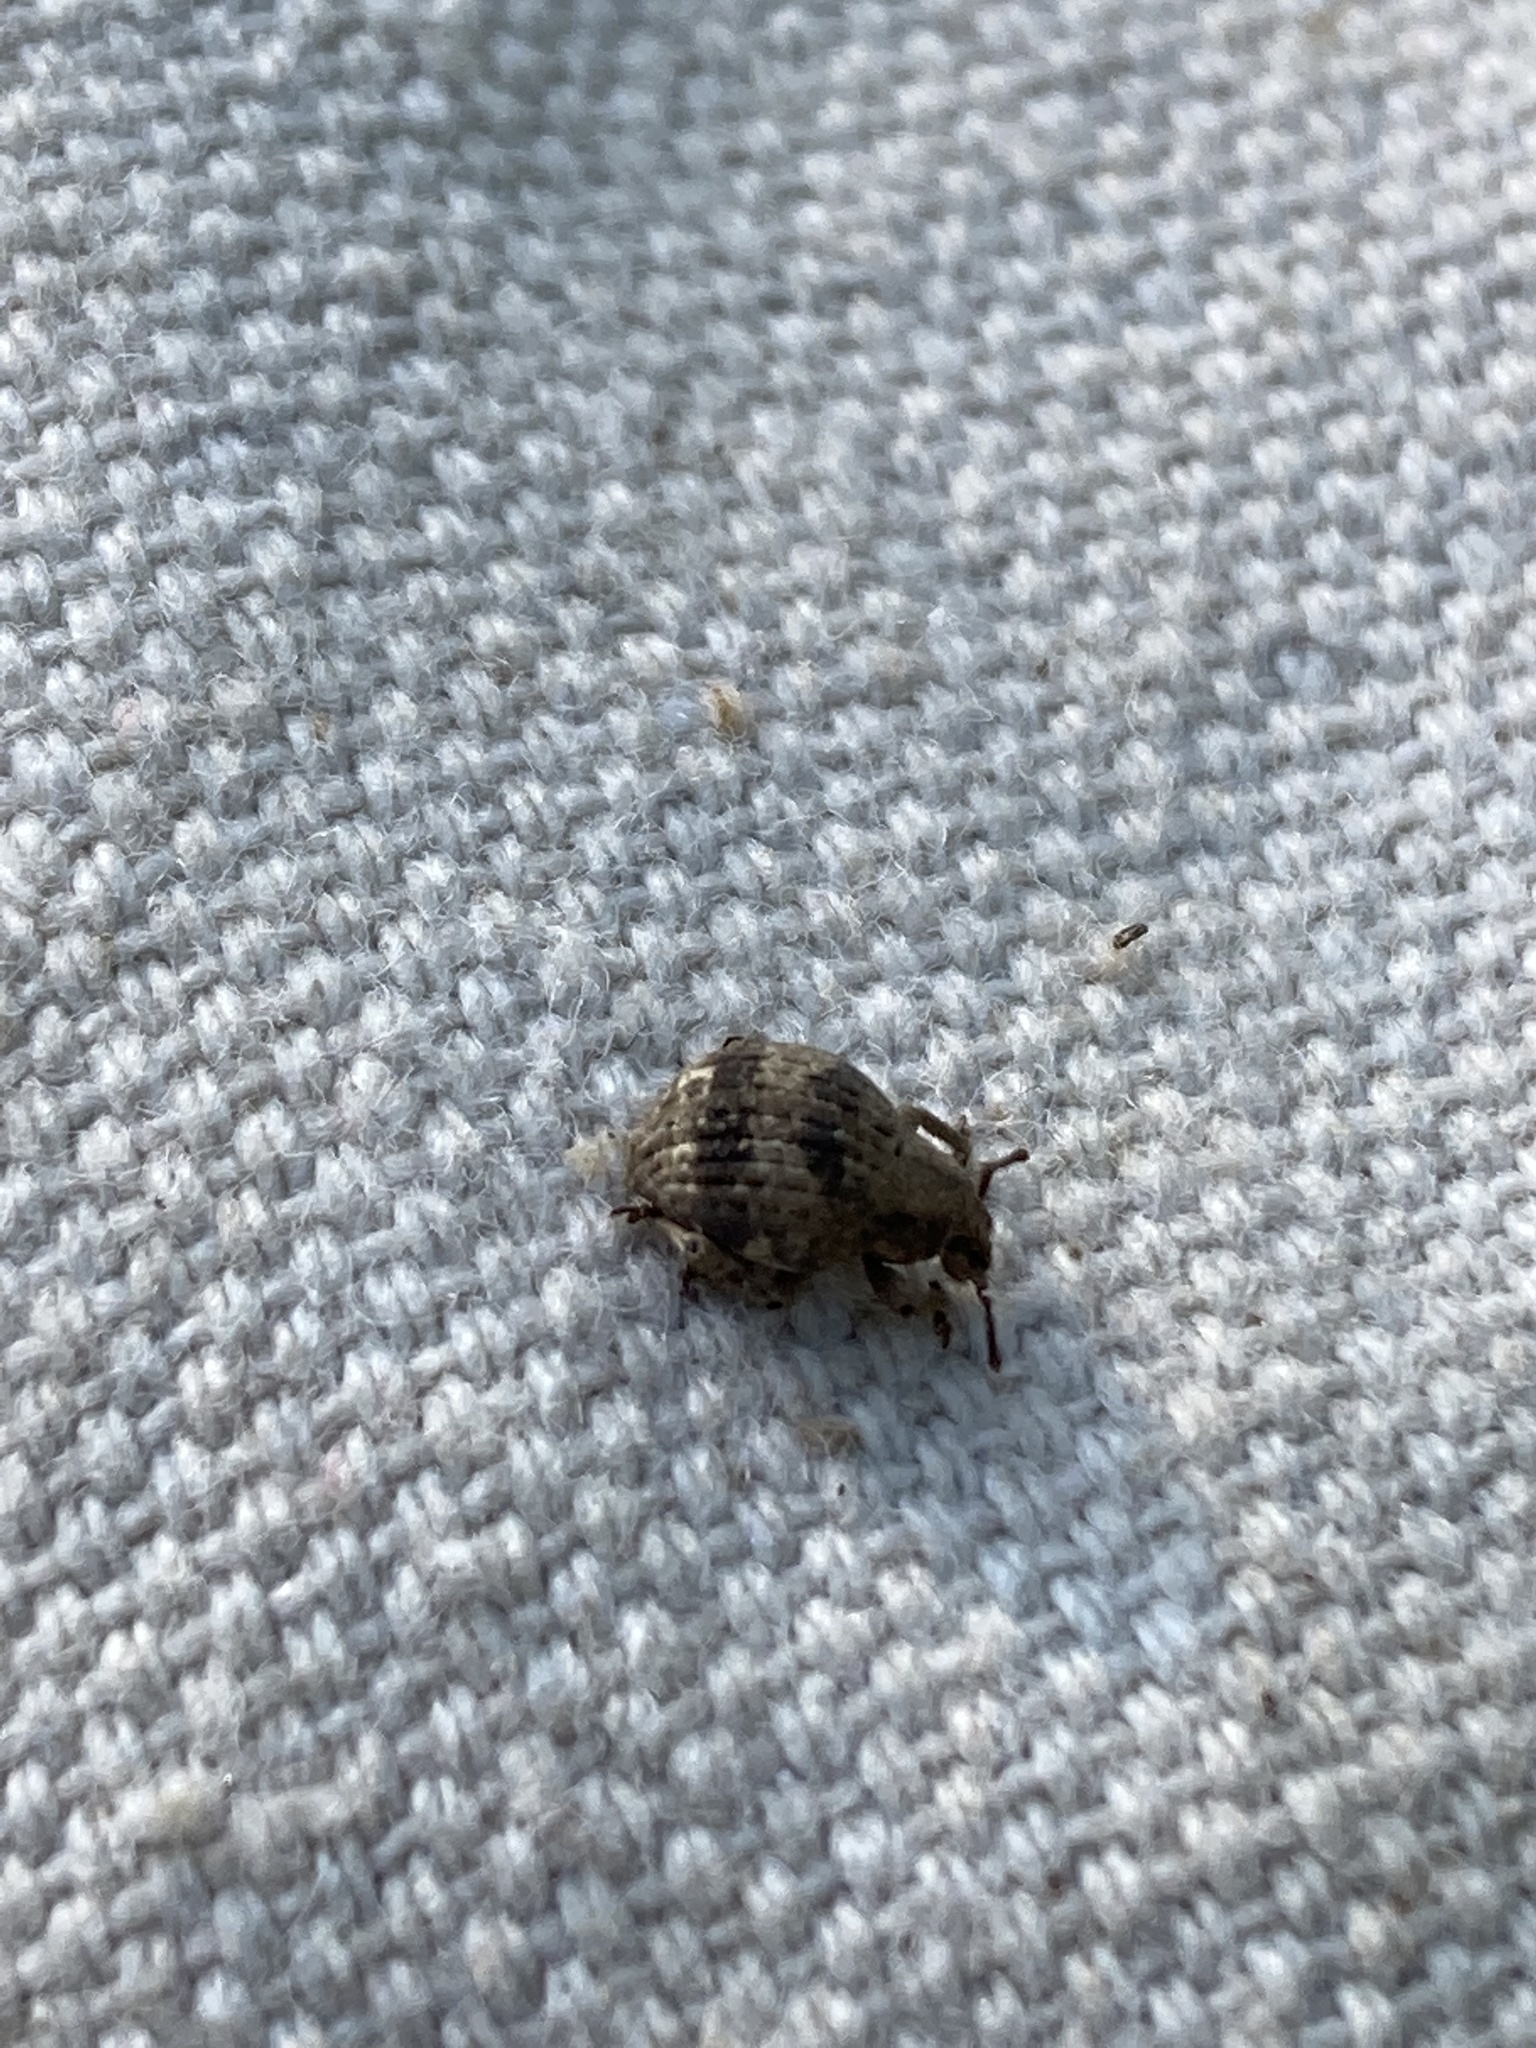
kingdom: Animalia
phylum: Arthropoda
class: Insecta
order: Coleoptera
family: Curculionidae
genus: Pseudocneorhinus
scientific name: Pseudocneorhinus bifasciatus
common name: Two-banded japanese weevil
